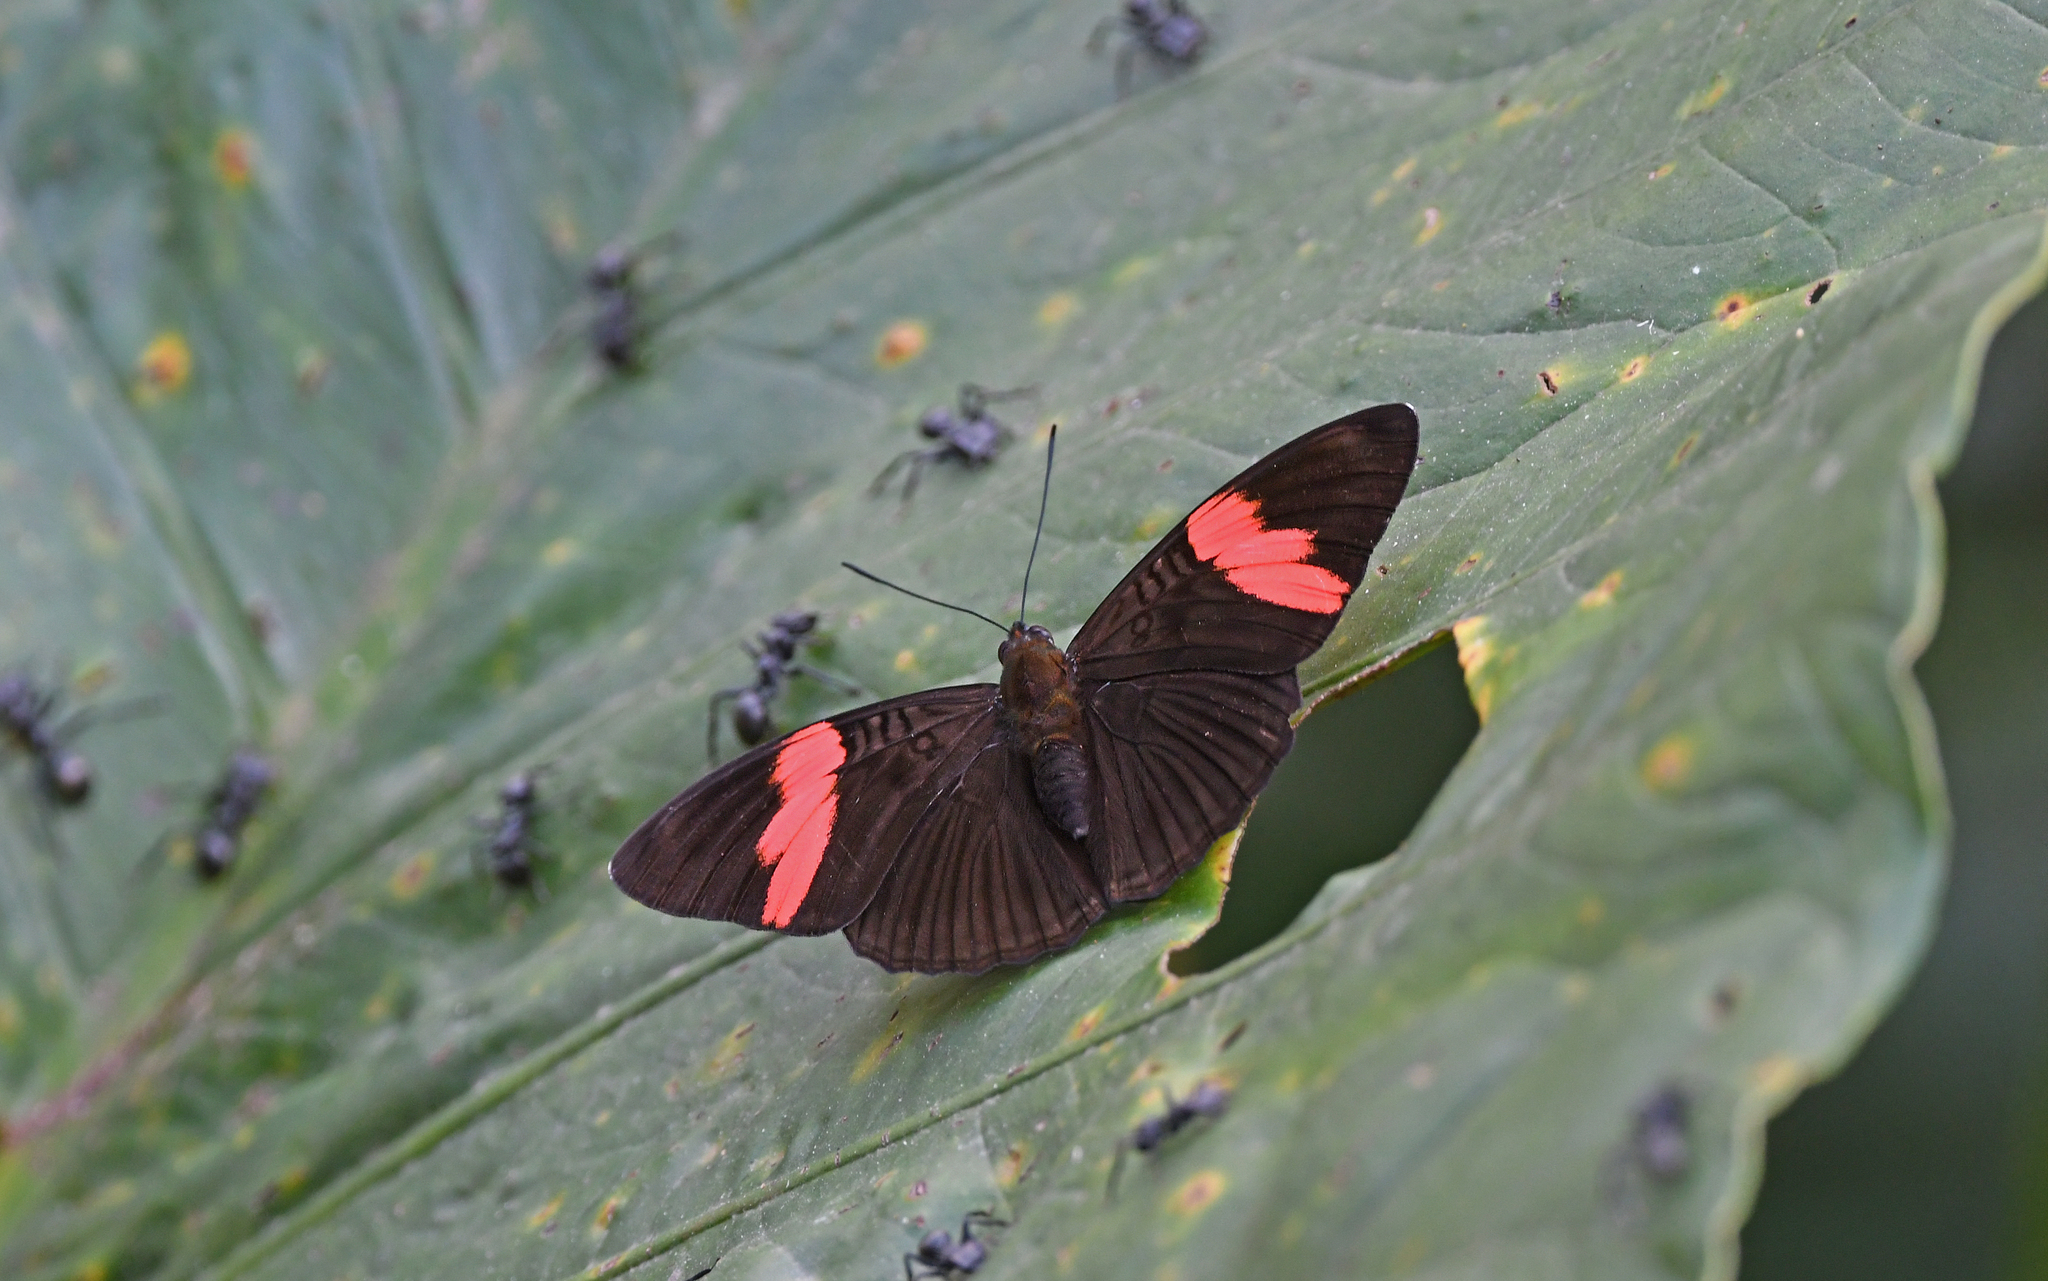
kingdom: Animalia
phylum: Arthropoda
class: Insecta
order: Lepidoptera
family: Nymphalidae
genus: Limenitis
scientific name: Limenitis isis
